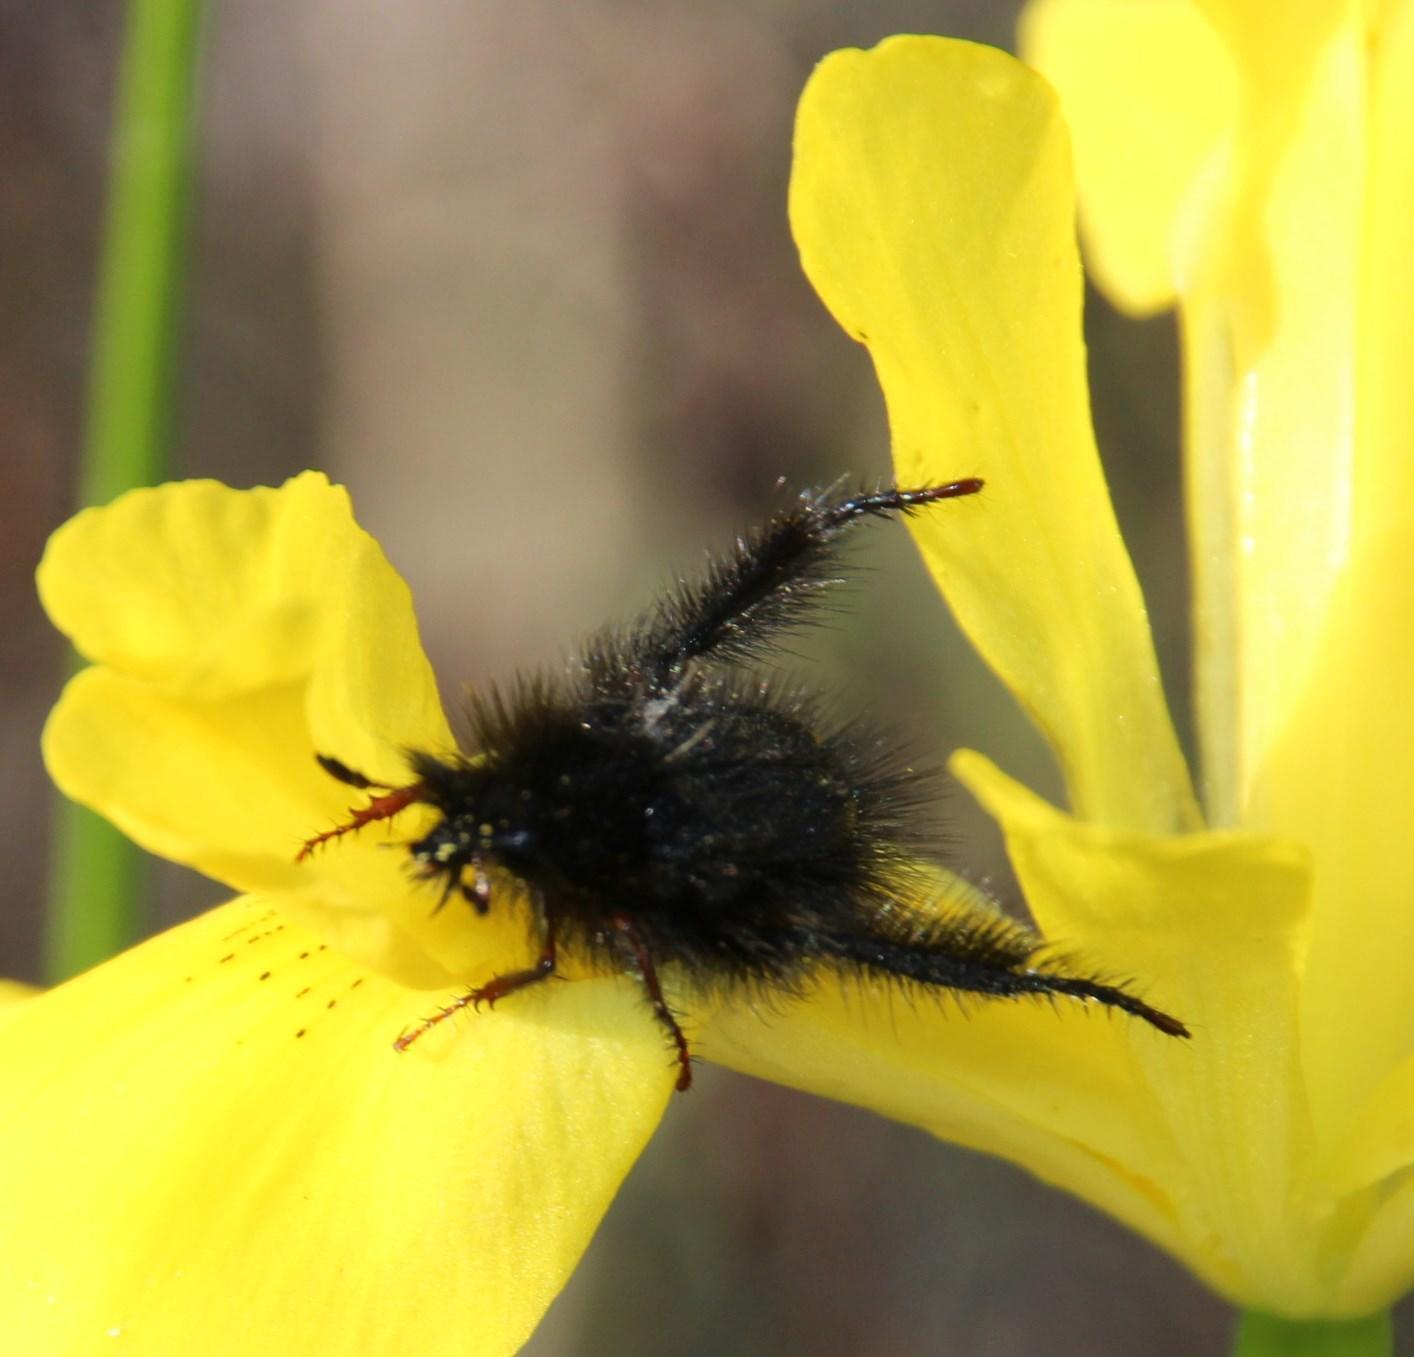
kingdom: Animalia
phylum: Arthropoda
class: Insecta
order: Coleoptera
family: Scarabaeidae
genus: Anisonyx
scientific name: Anisonyx ursinus
